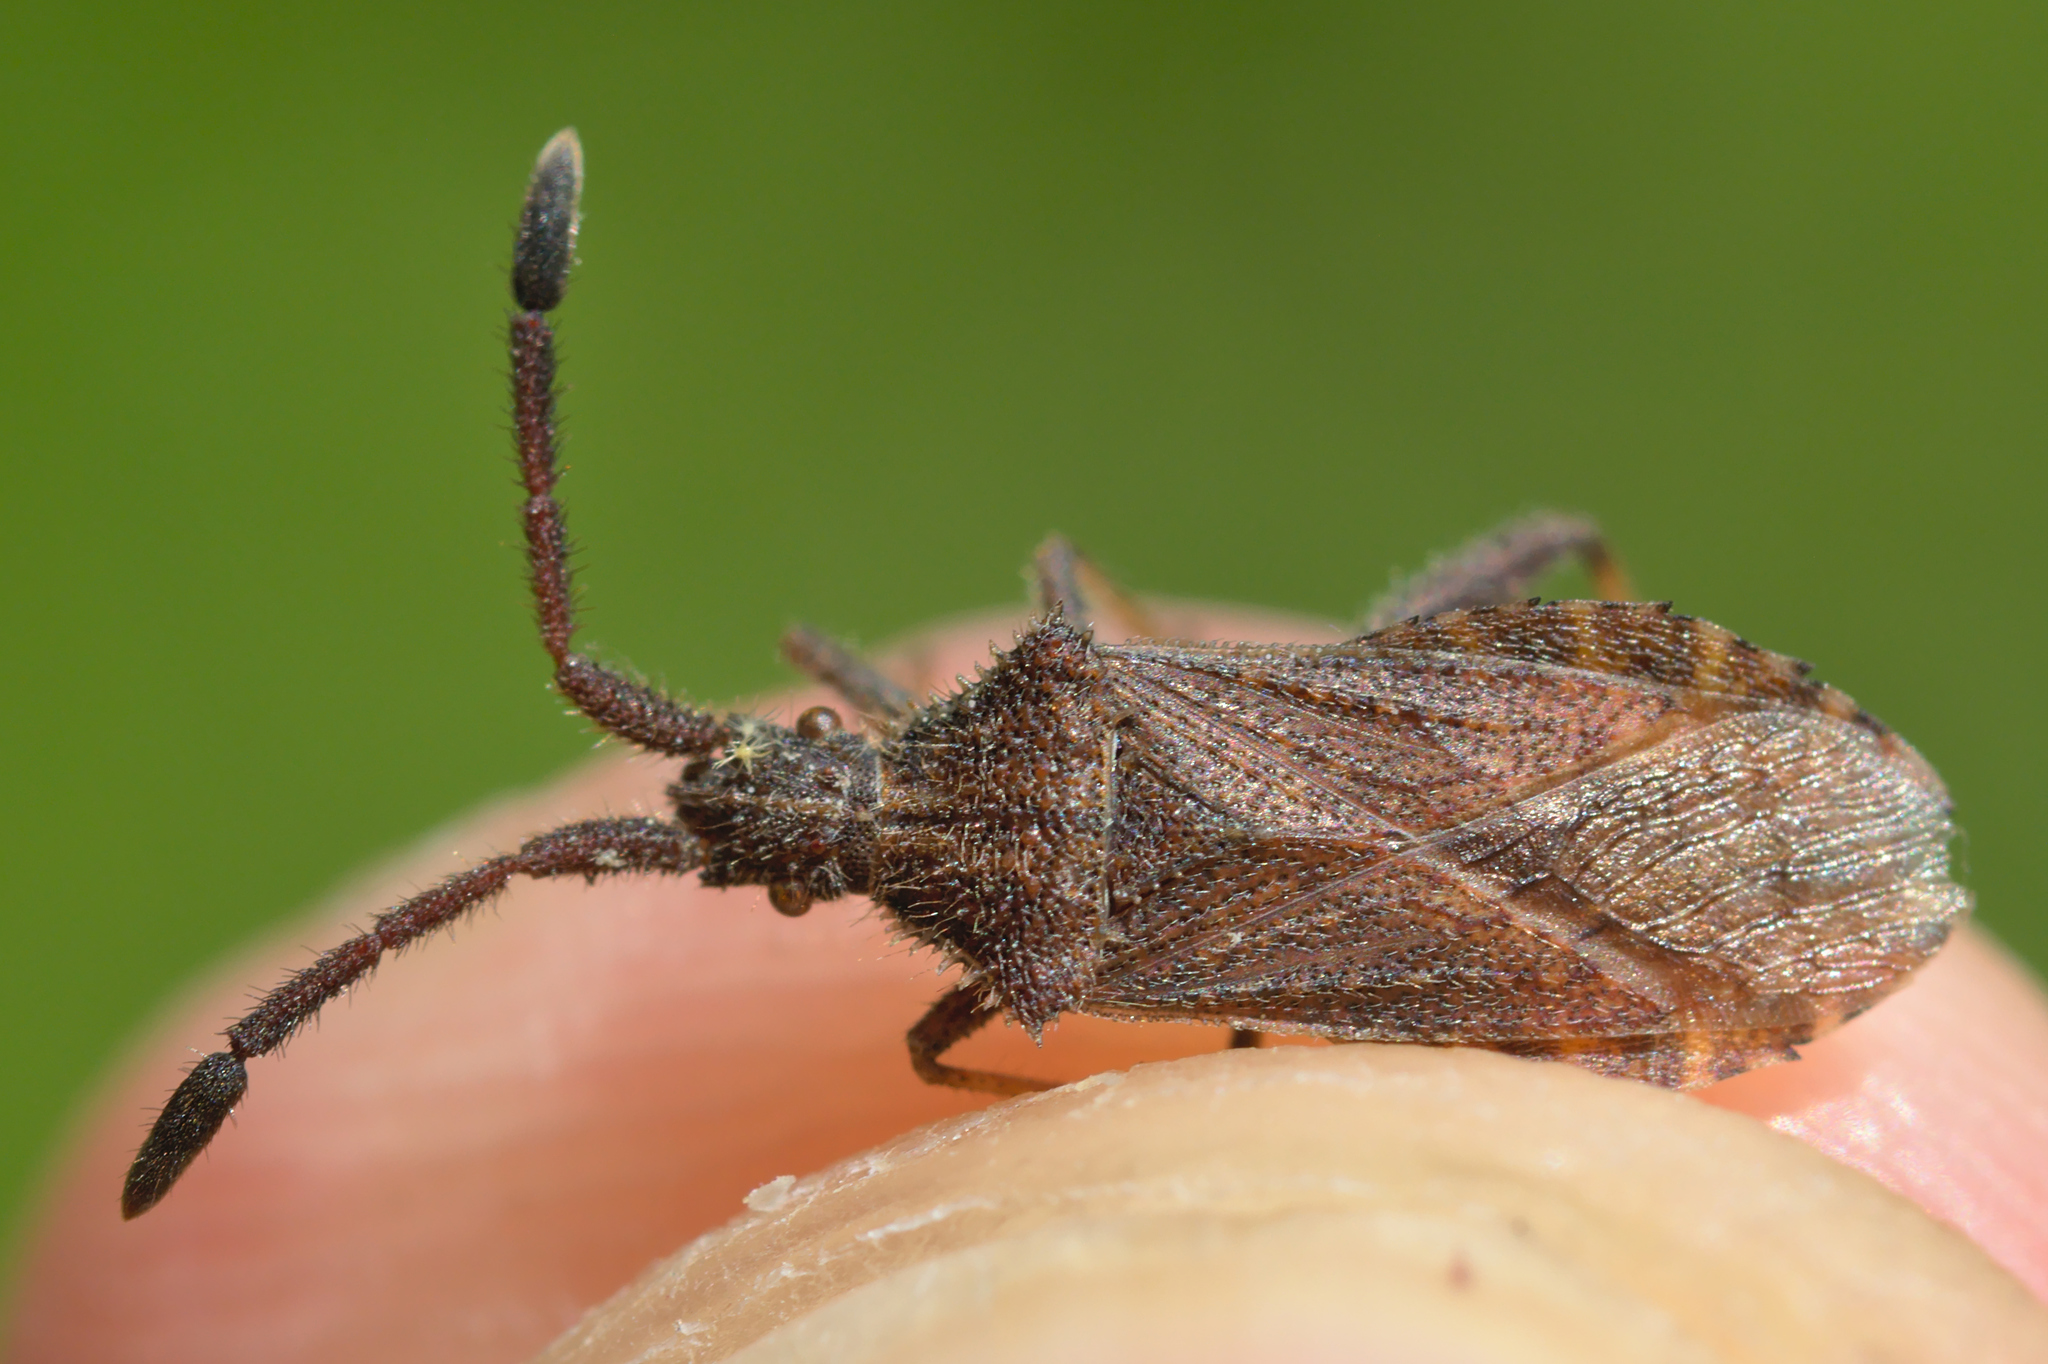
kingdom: Animalia
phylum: Arthropoda
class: Insecta
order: Hemiptera
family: Coreidae
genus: Coriomeris
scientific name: Coriomeris denticulatus
